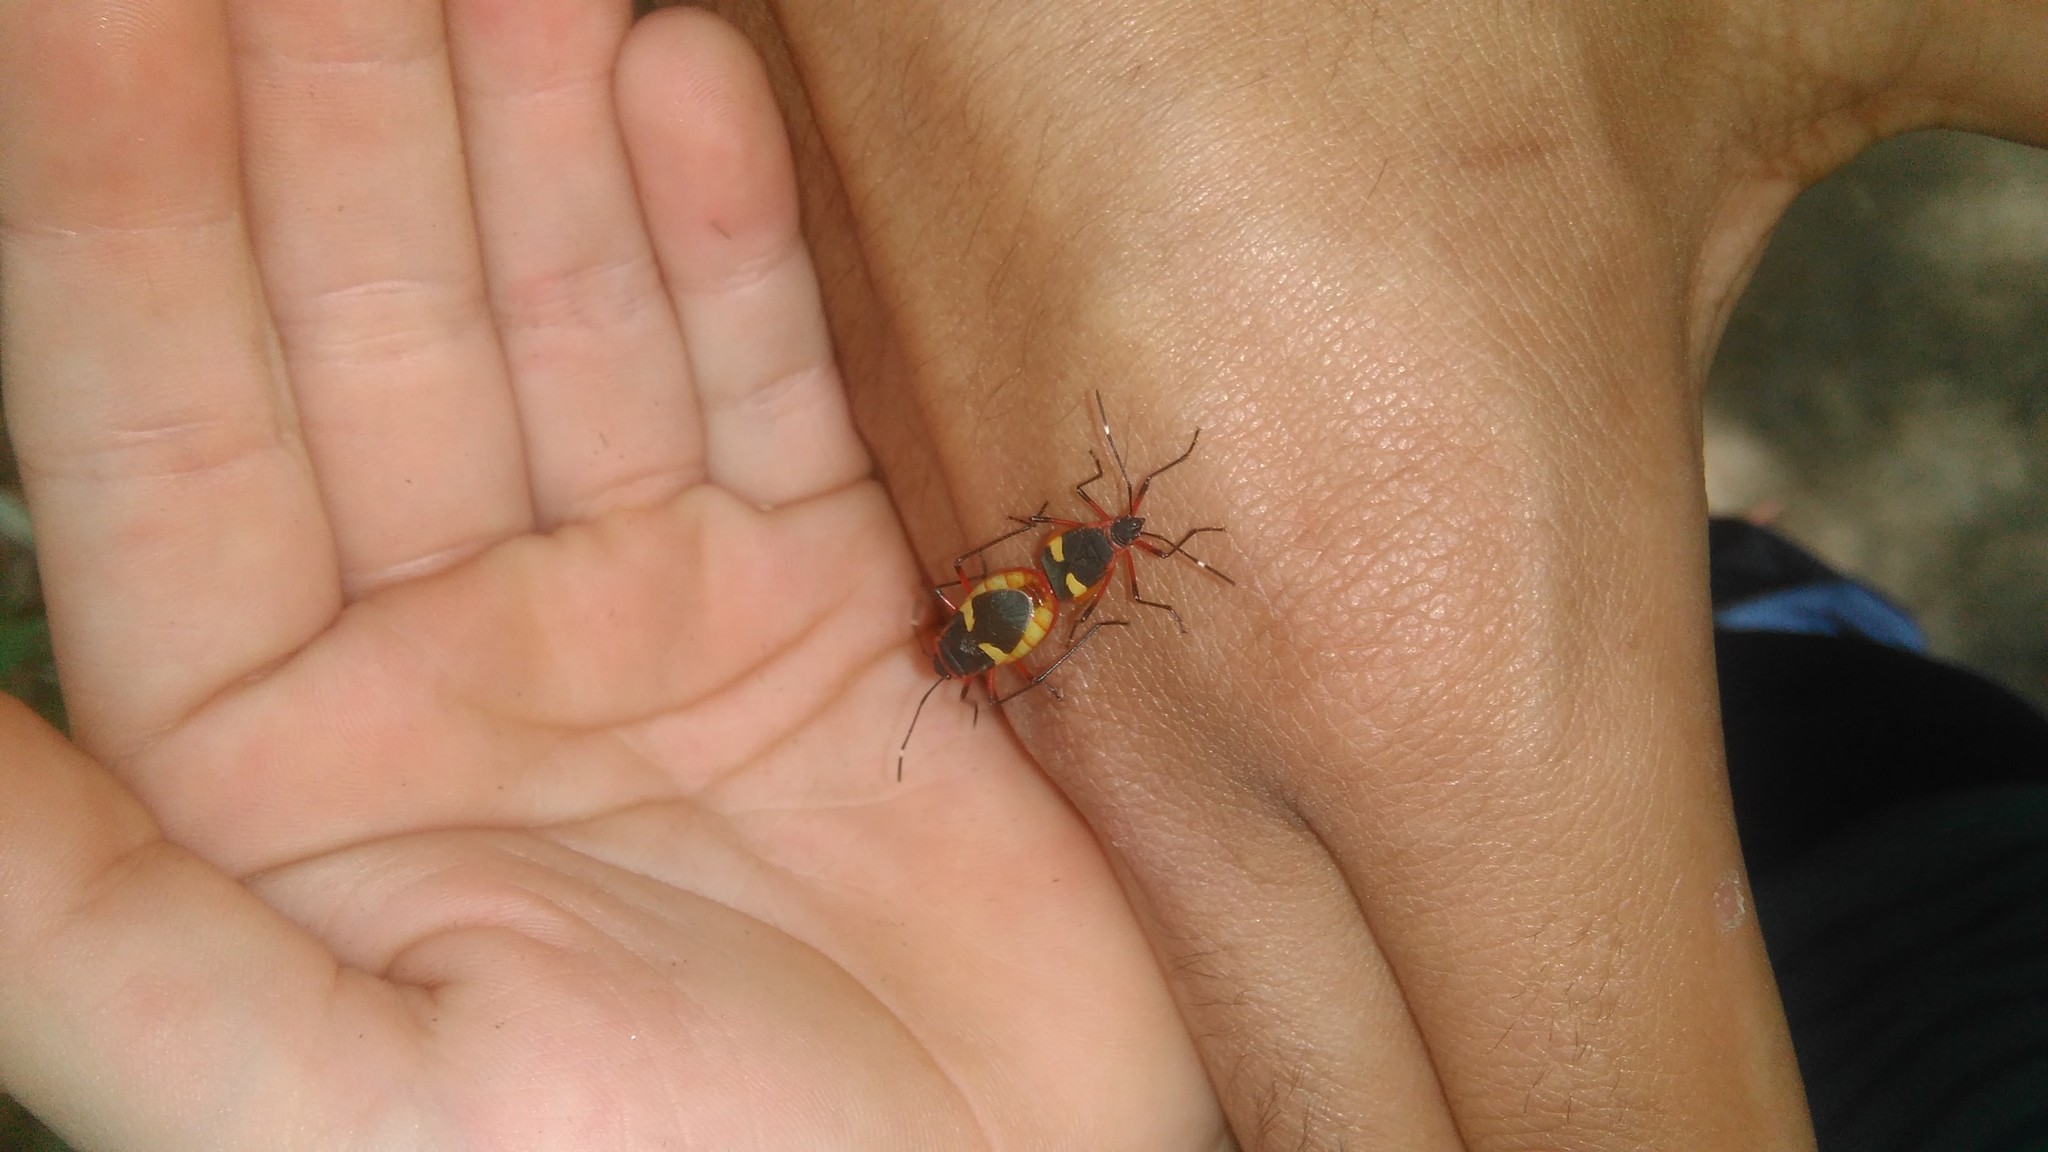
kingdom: Animalia
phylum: Arthropoda
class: Insecta
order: Hemiptera
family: Pyrrhocoridae
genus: Dysdercus
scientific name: Dysdercus albofasciatus
